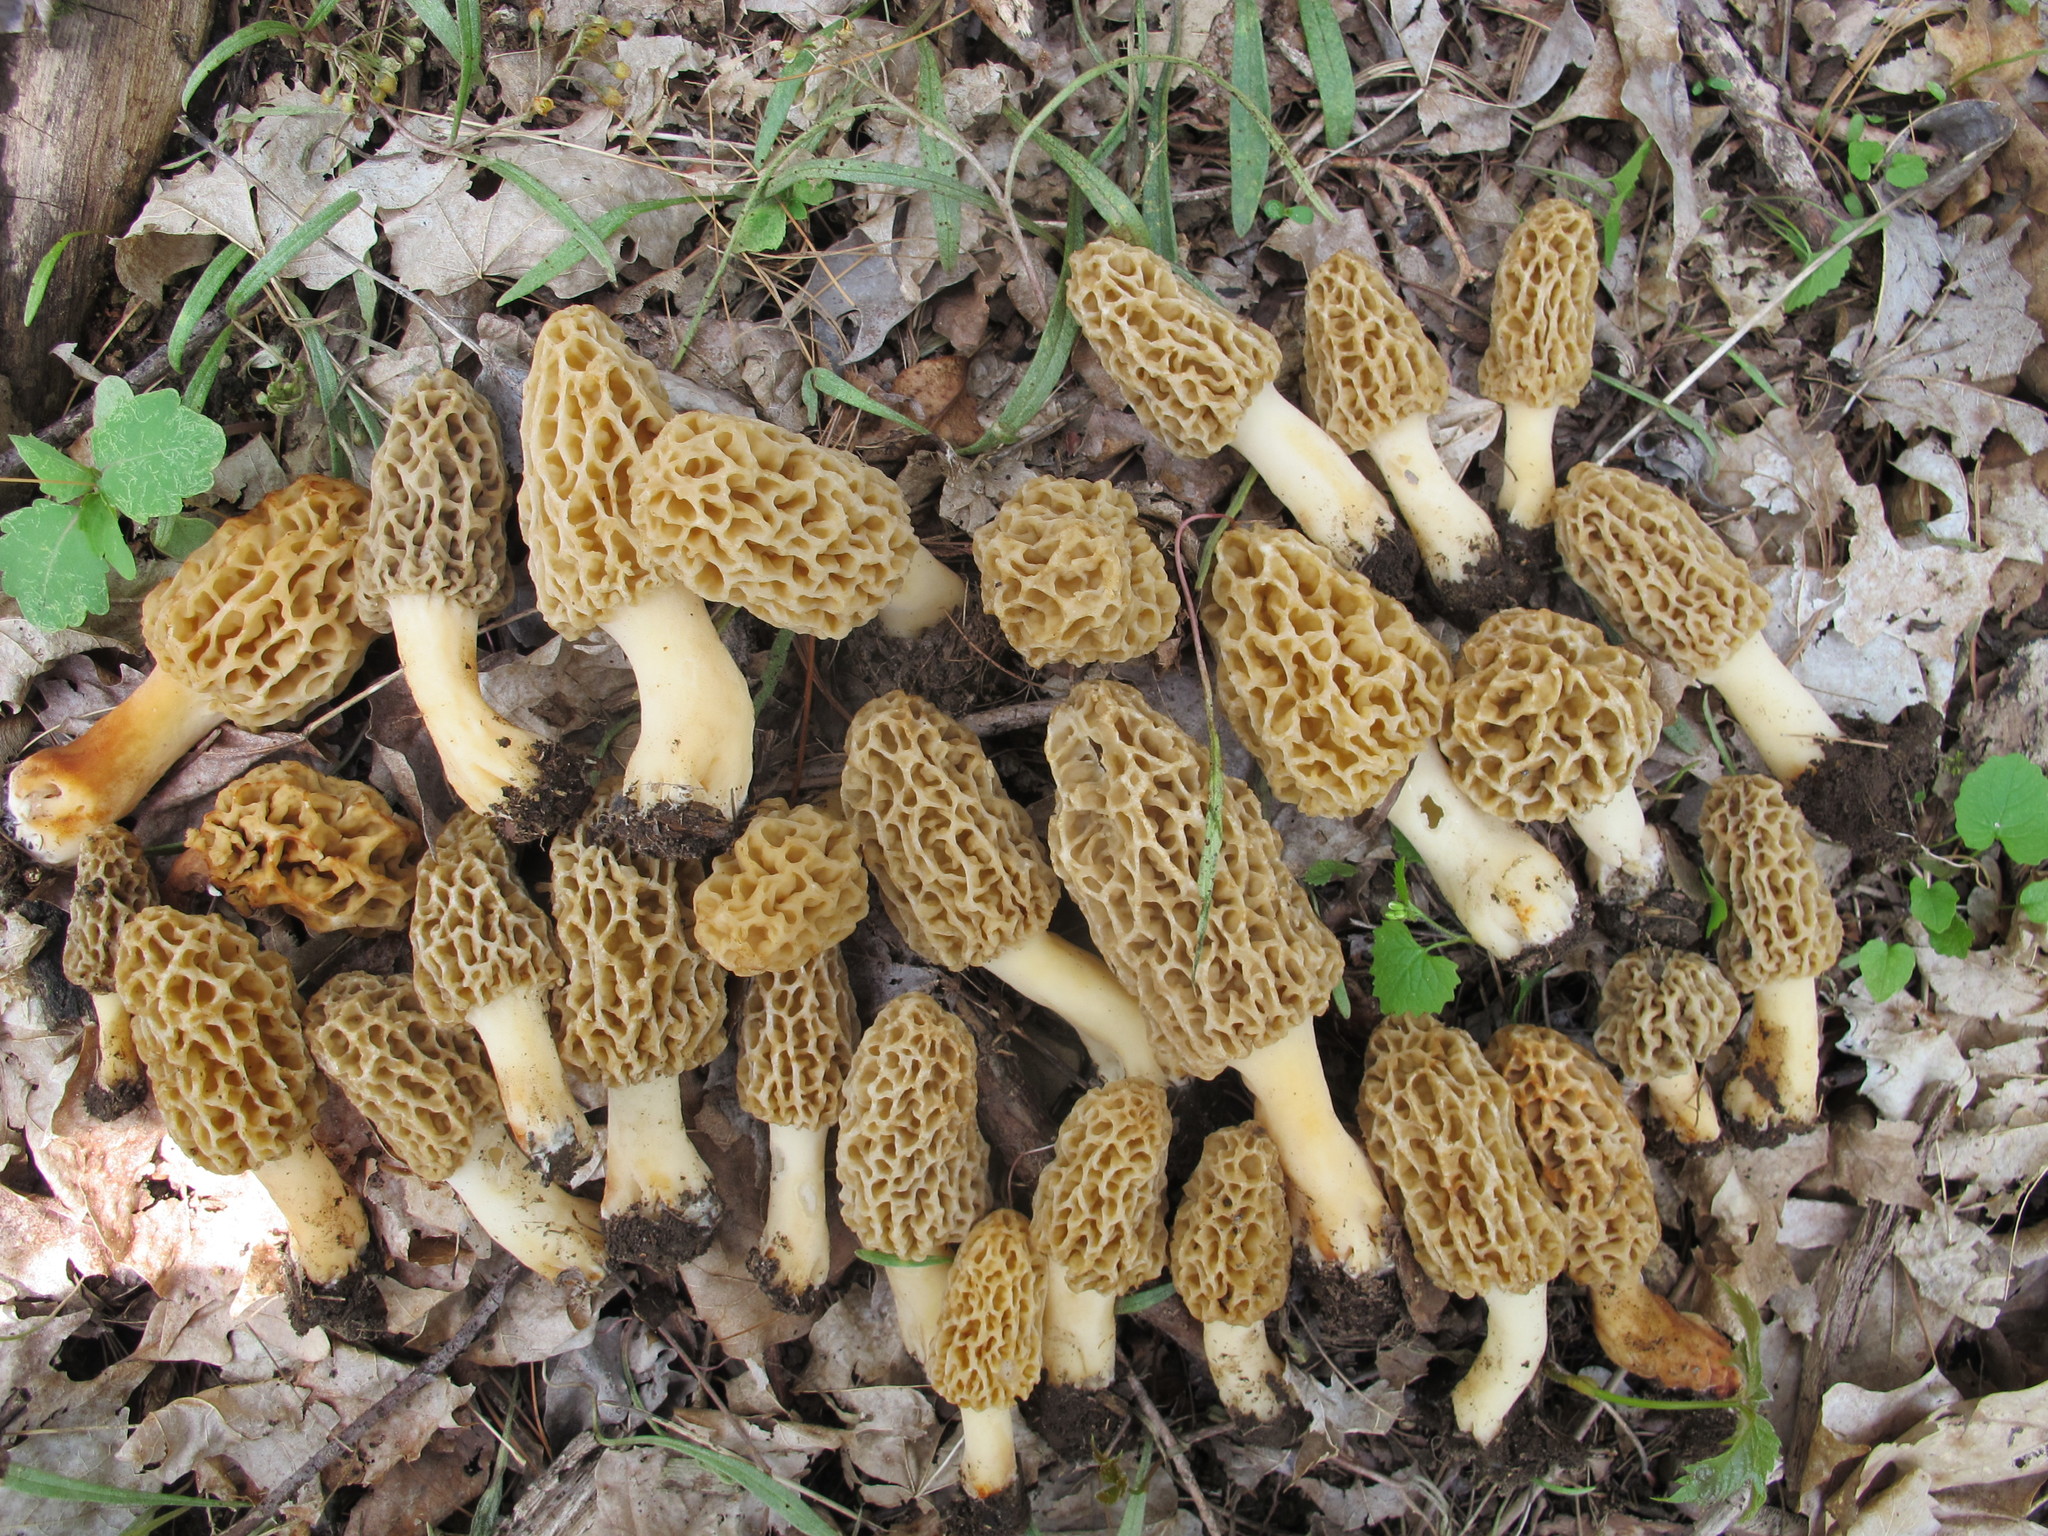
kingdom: Fungi
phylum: Ascomycota
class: Pezizomycetes
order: Pezizales
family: Morchellaceae
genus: Morchella
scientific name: Morchella americana
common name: White morel
